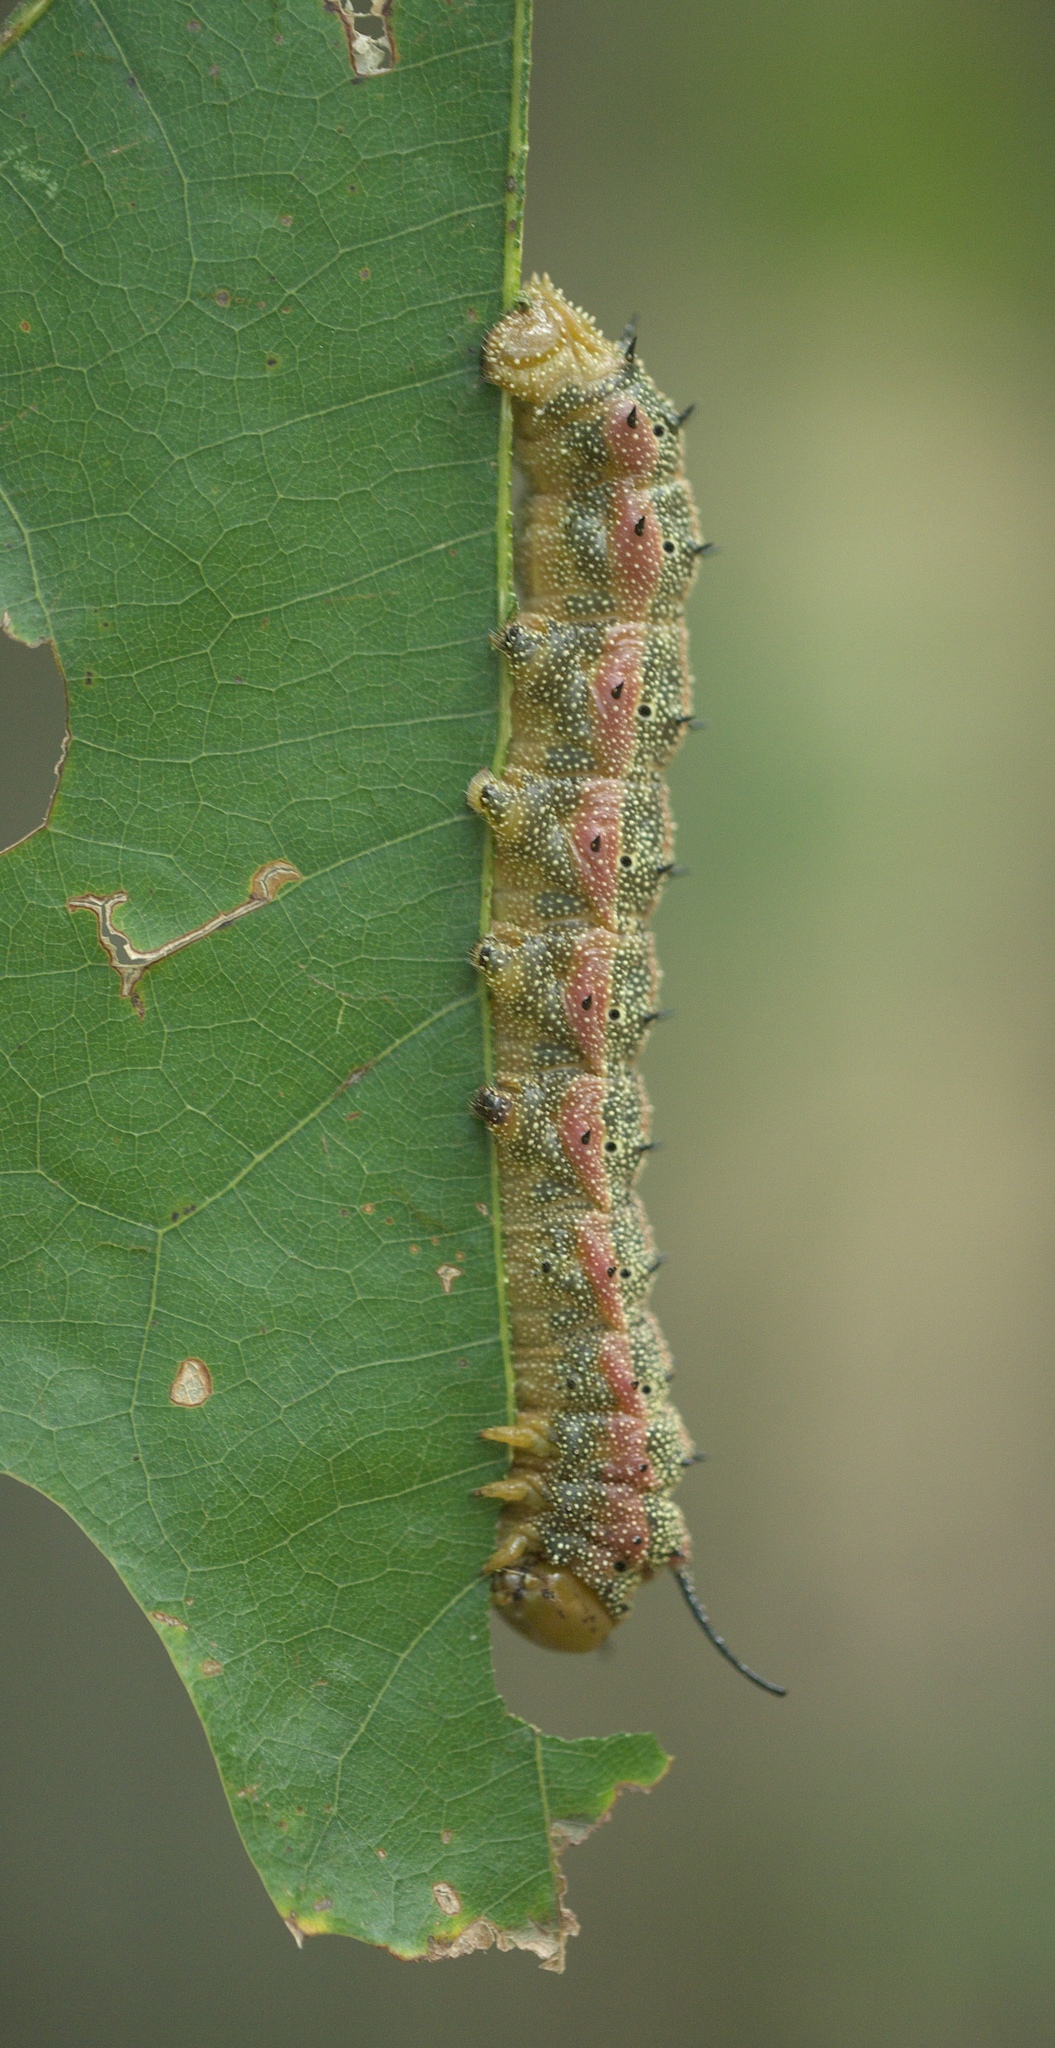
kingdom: Animalia
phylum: Arthropoda
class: Insecta
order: Lepidoptera
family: Saturniidae
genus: Anisota
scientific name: Anisota virginiensis
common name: Pink striped oakworm moth
